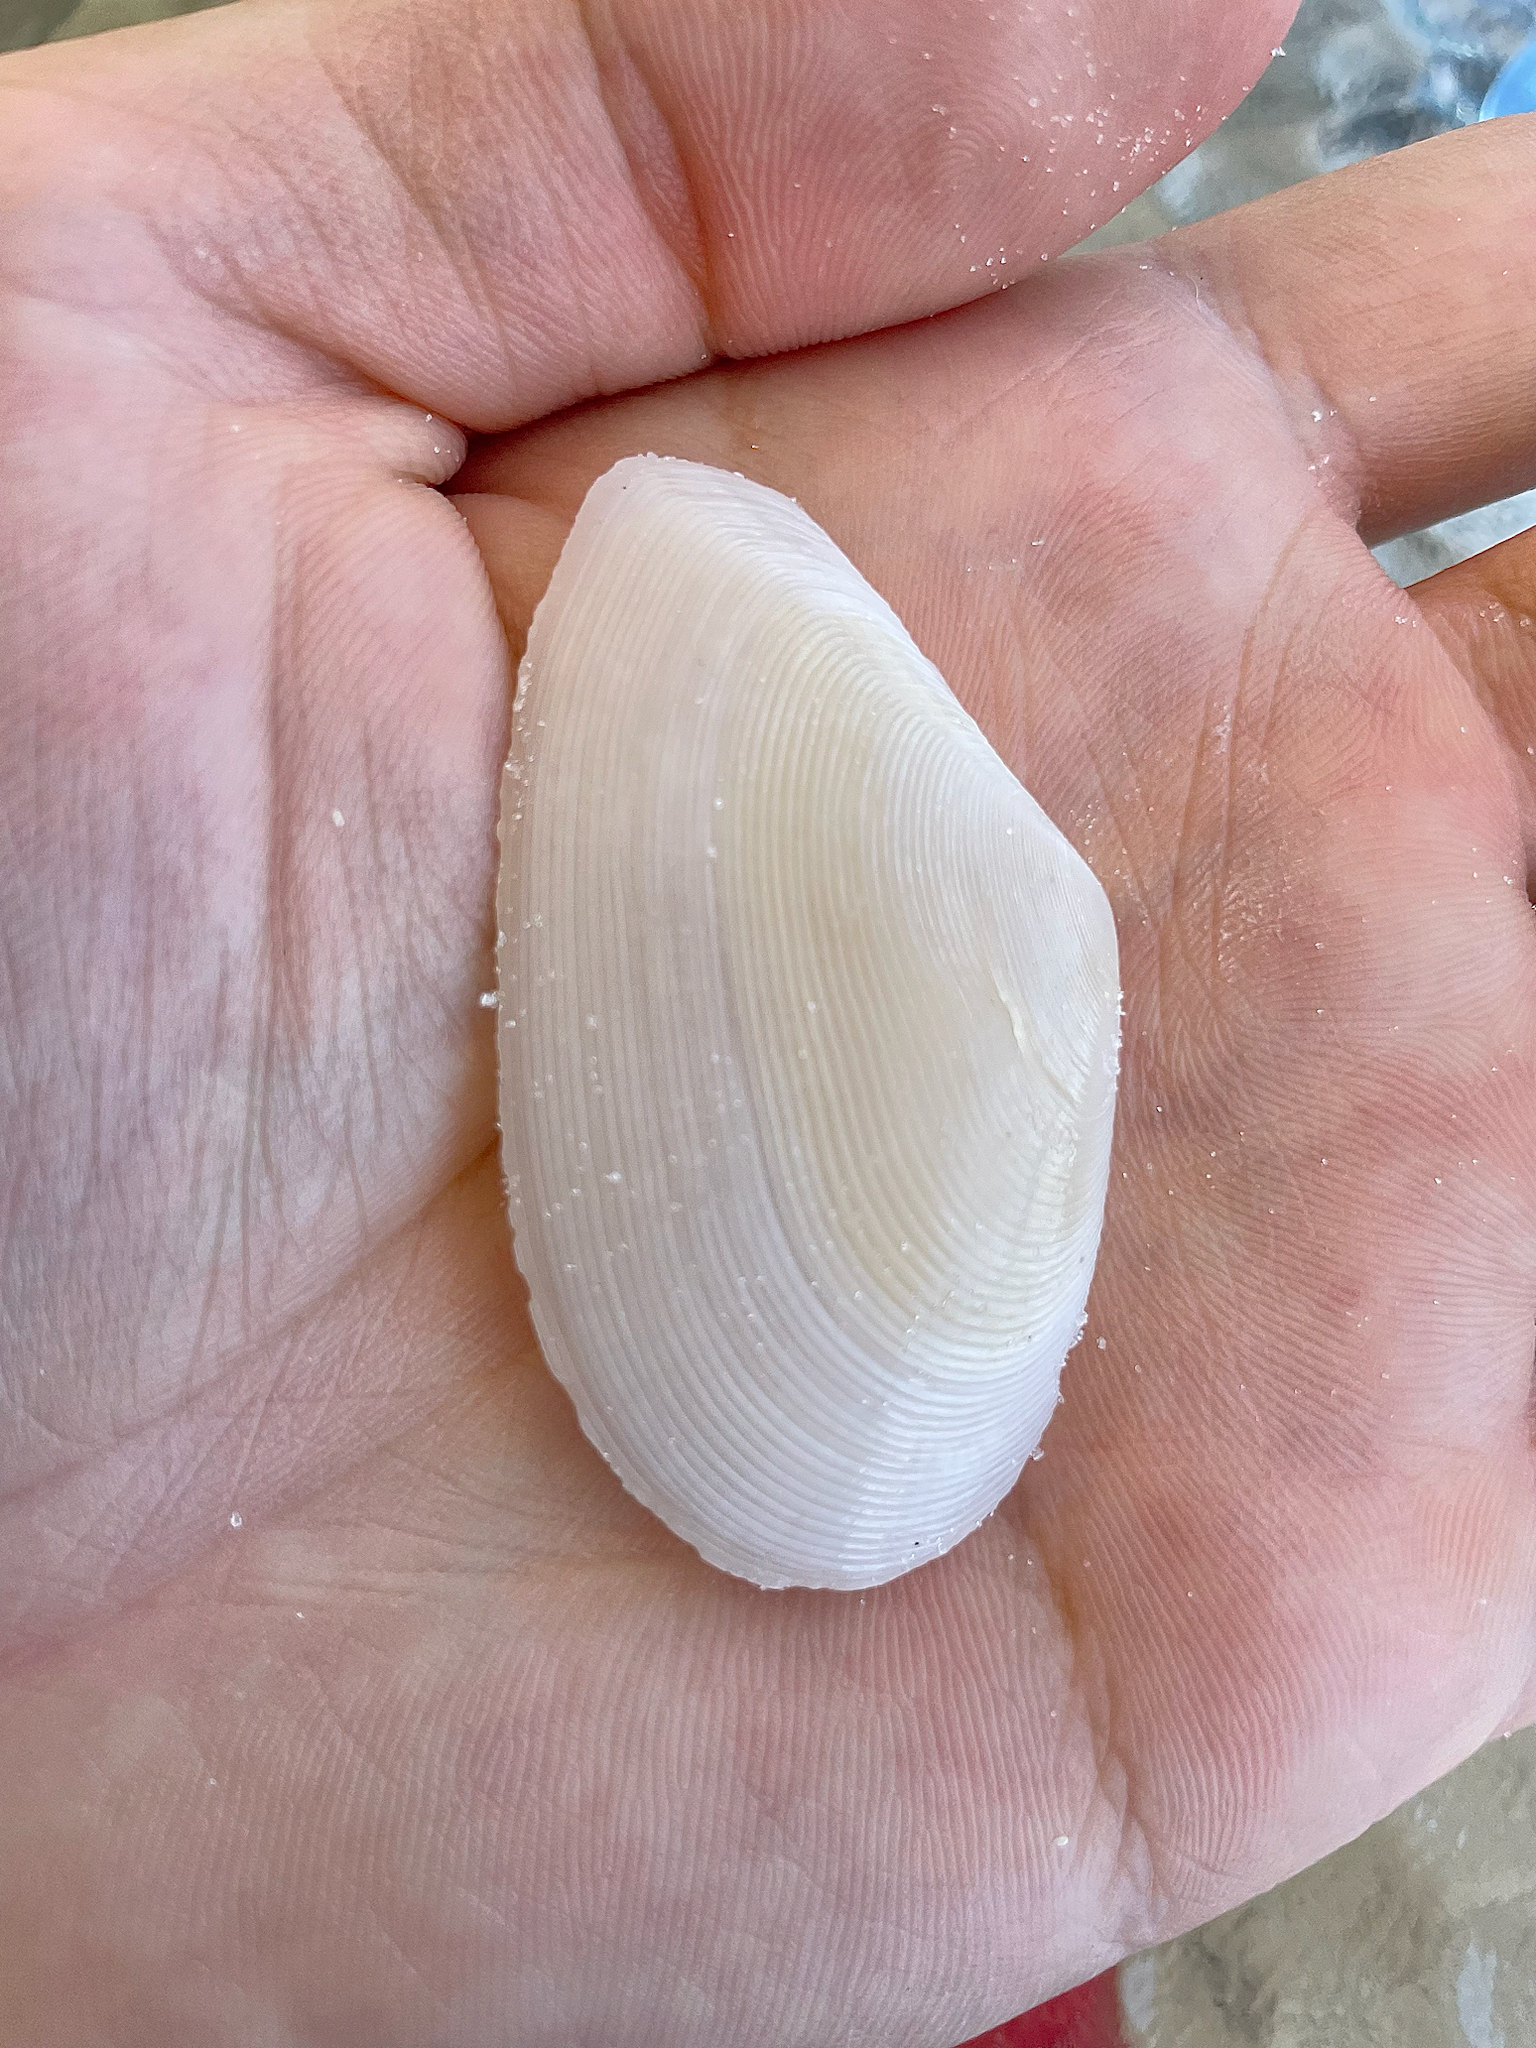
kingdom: Animalia
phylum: Mollusca
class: Bivalvia
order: Cardiida
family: Tellinidae
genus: Eurytellina
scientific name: Eurytellina alternata
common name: Alternate tellin
